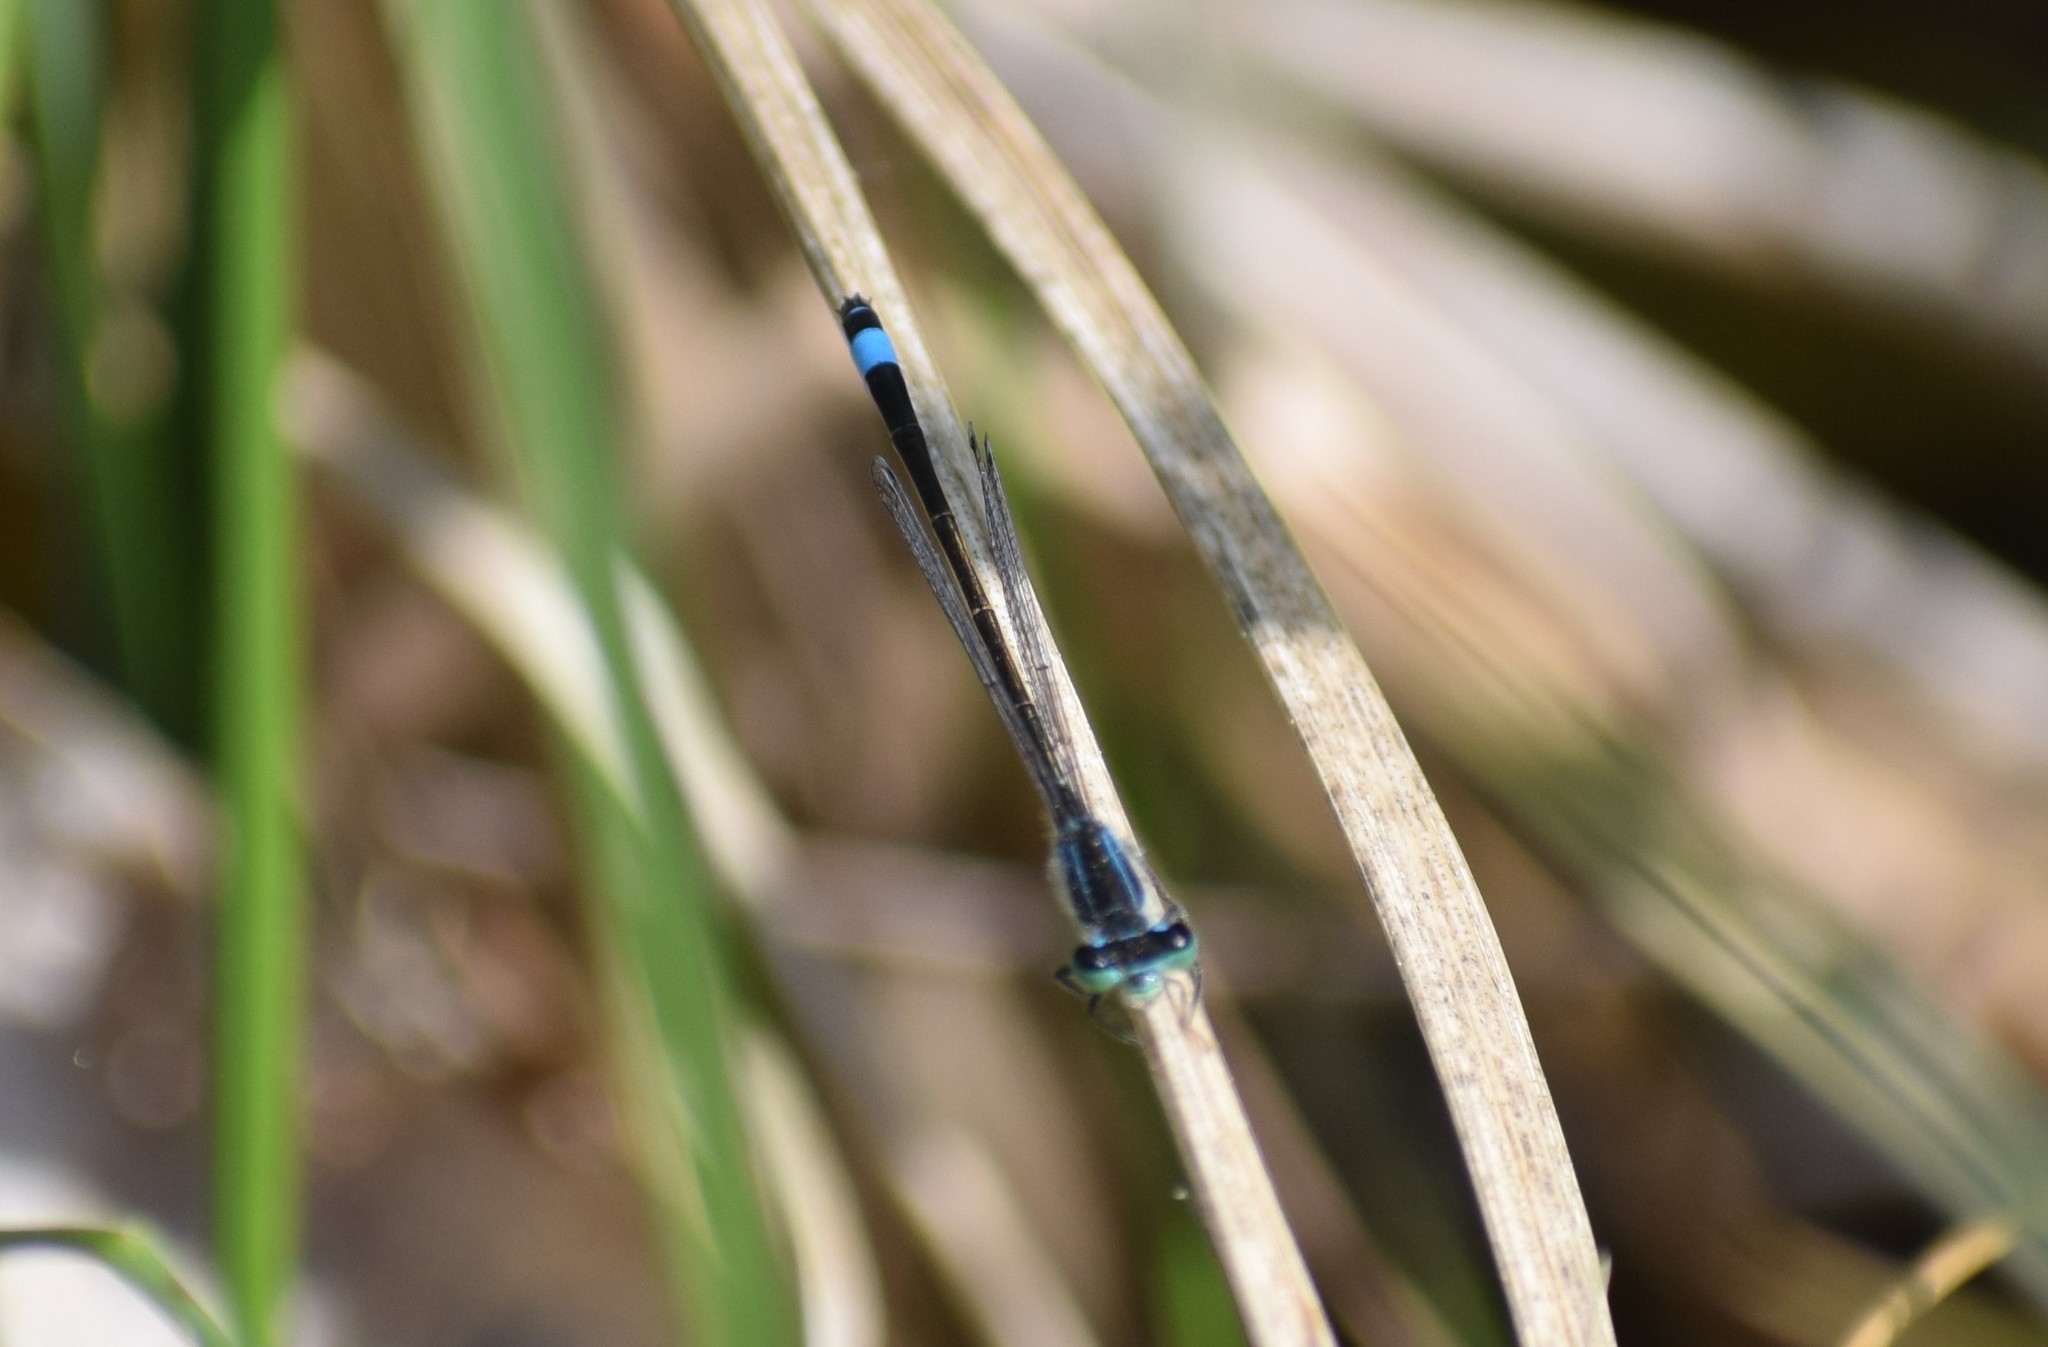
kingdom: Animalia
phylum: Arthropoda
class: Insecta
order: Odonata
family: Coenagrionidae
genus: Ischnura
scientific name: Ischnura elegans
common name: Blue-tailed damselfly
